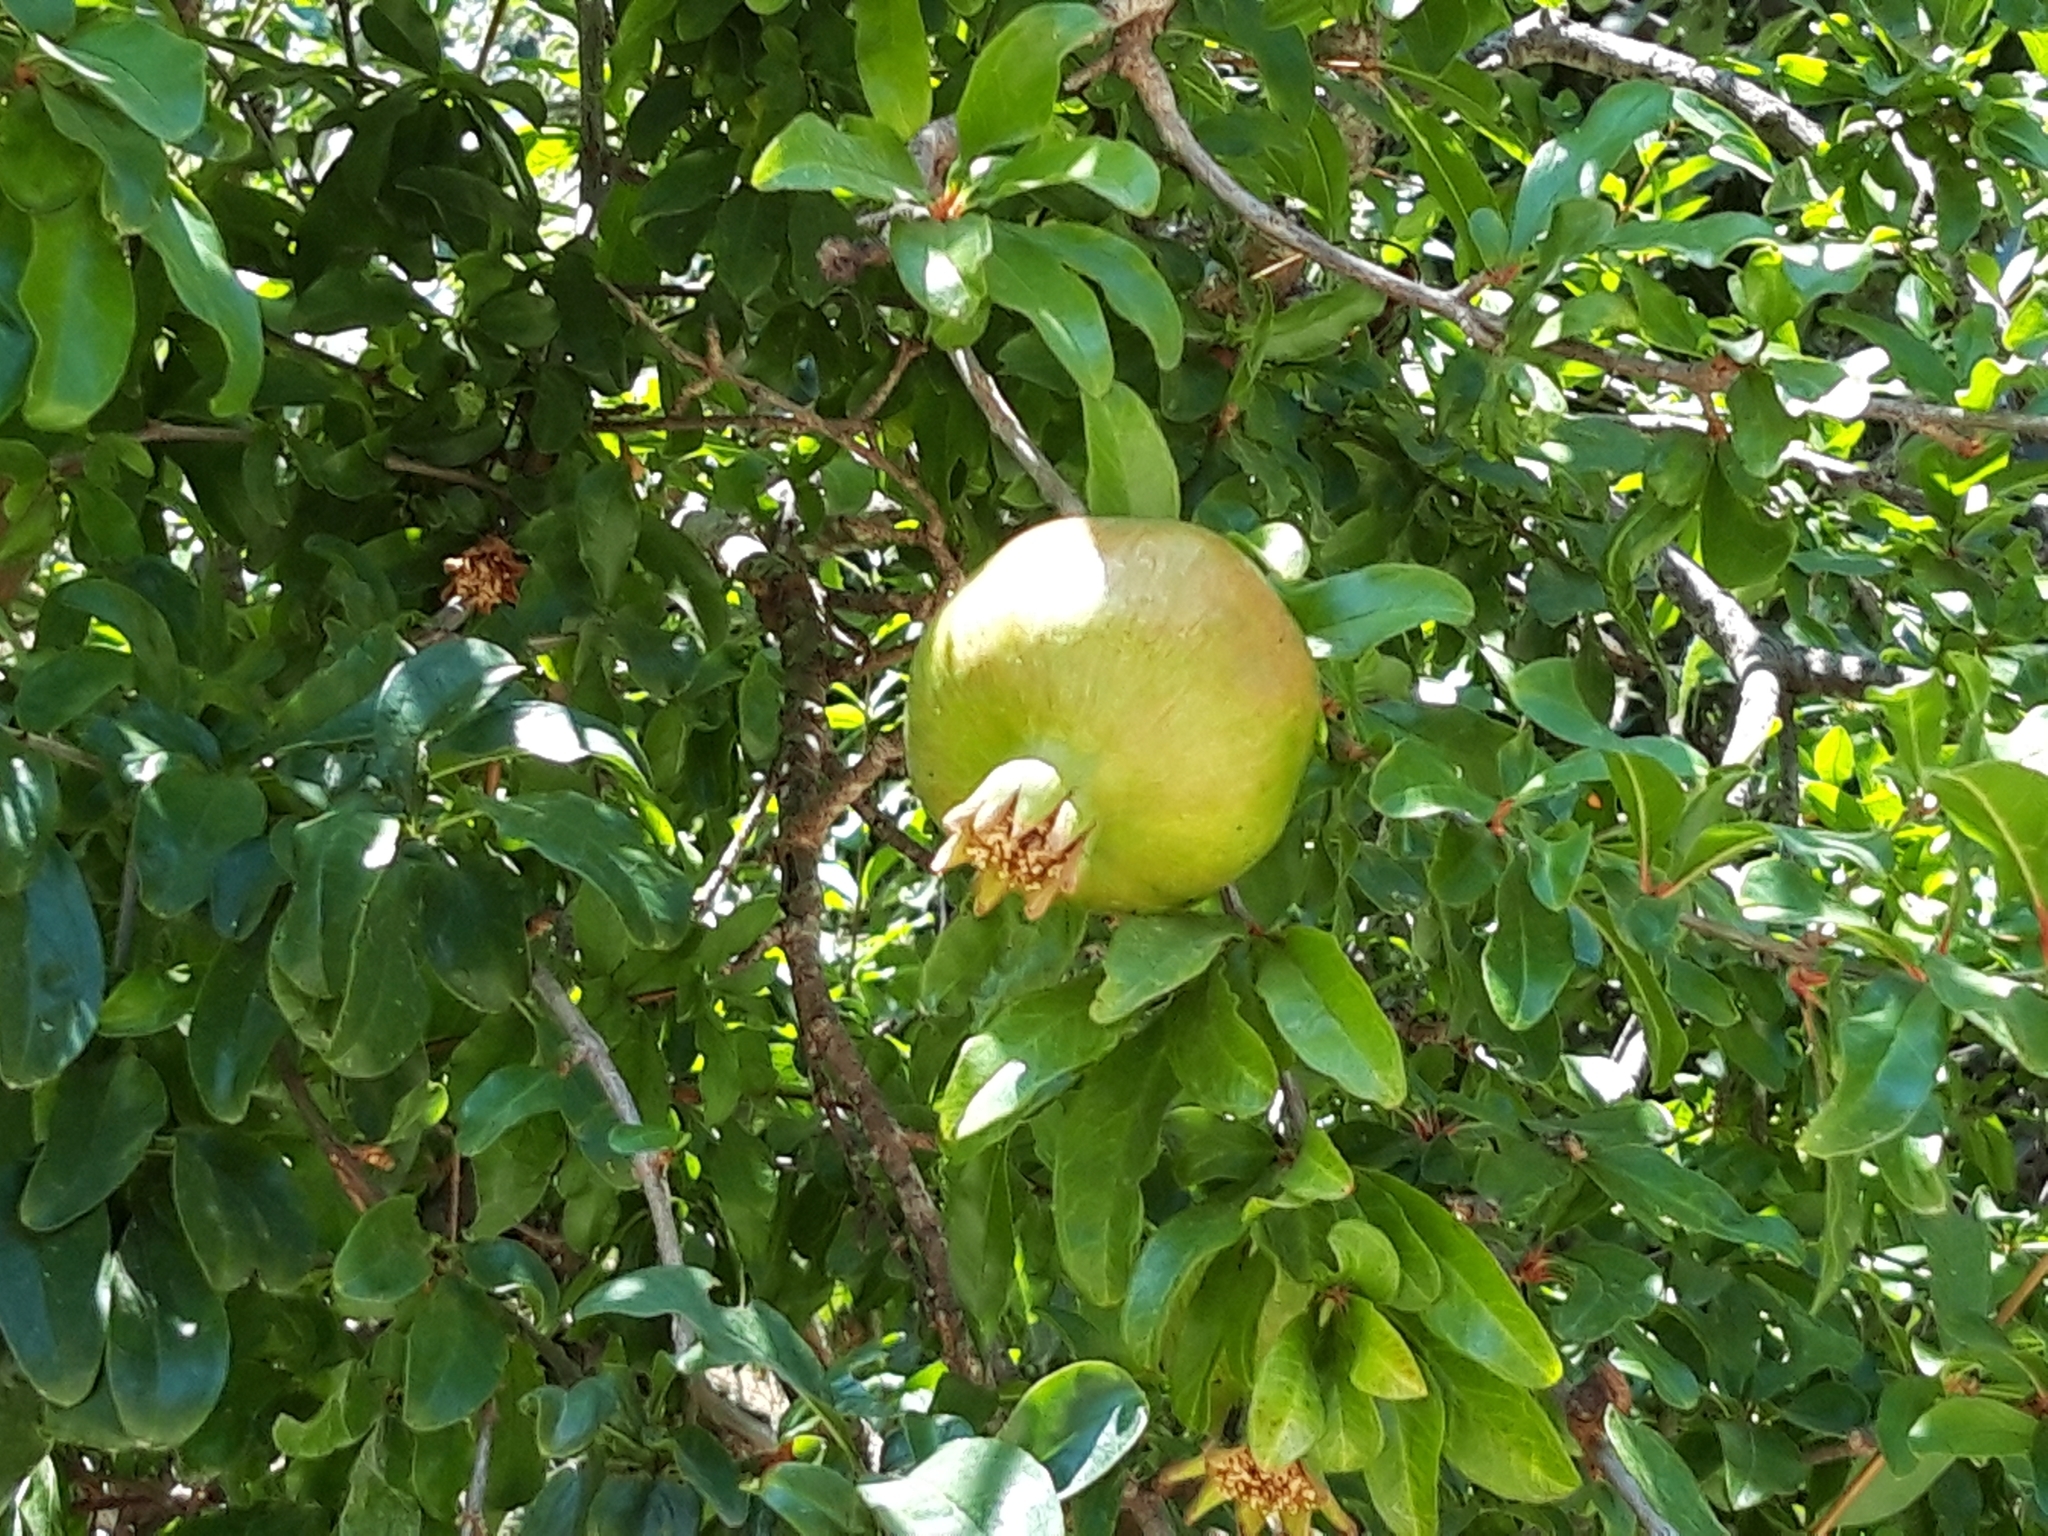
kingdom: Plantae
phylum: Tracheophyta
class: Magnoliopsida
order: Myrtales
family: Lythraceae
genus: Punica
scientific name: Punica granatum
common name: Pomegranate
